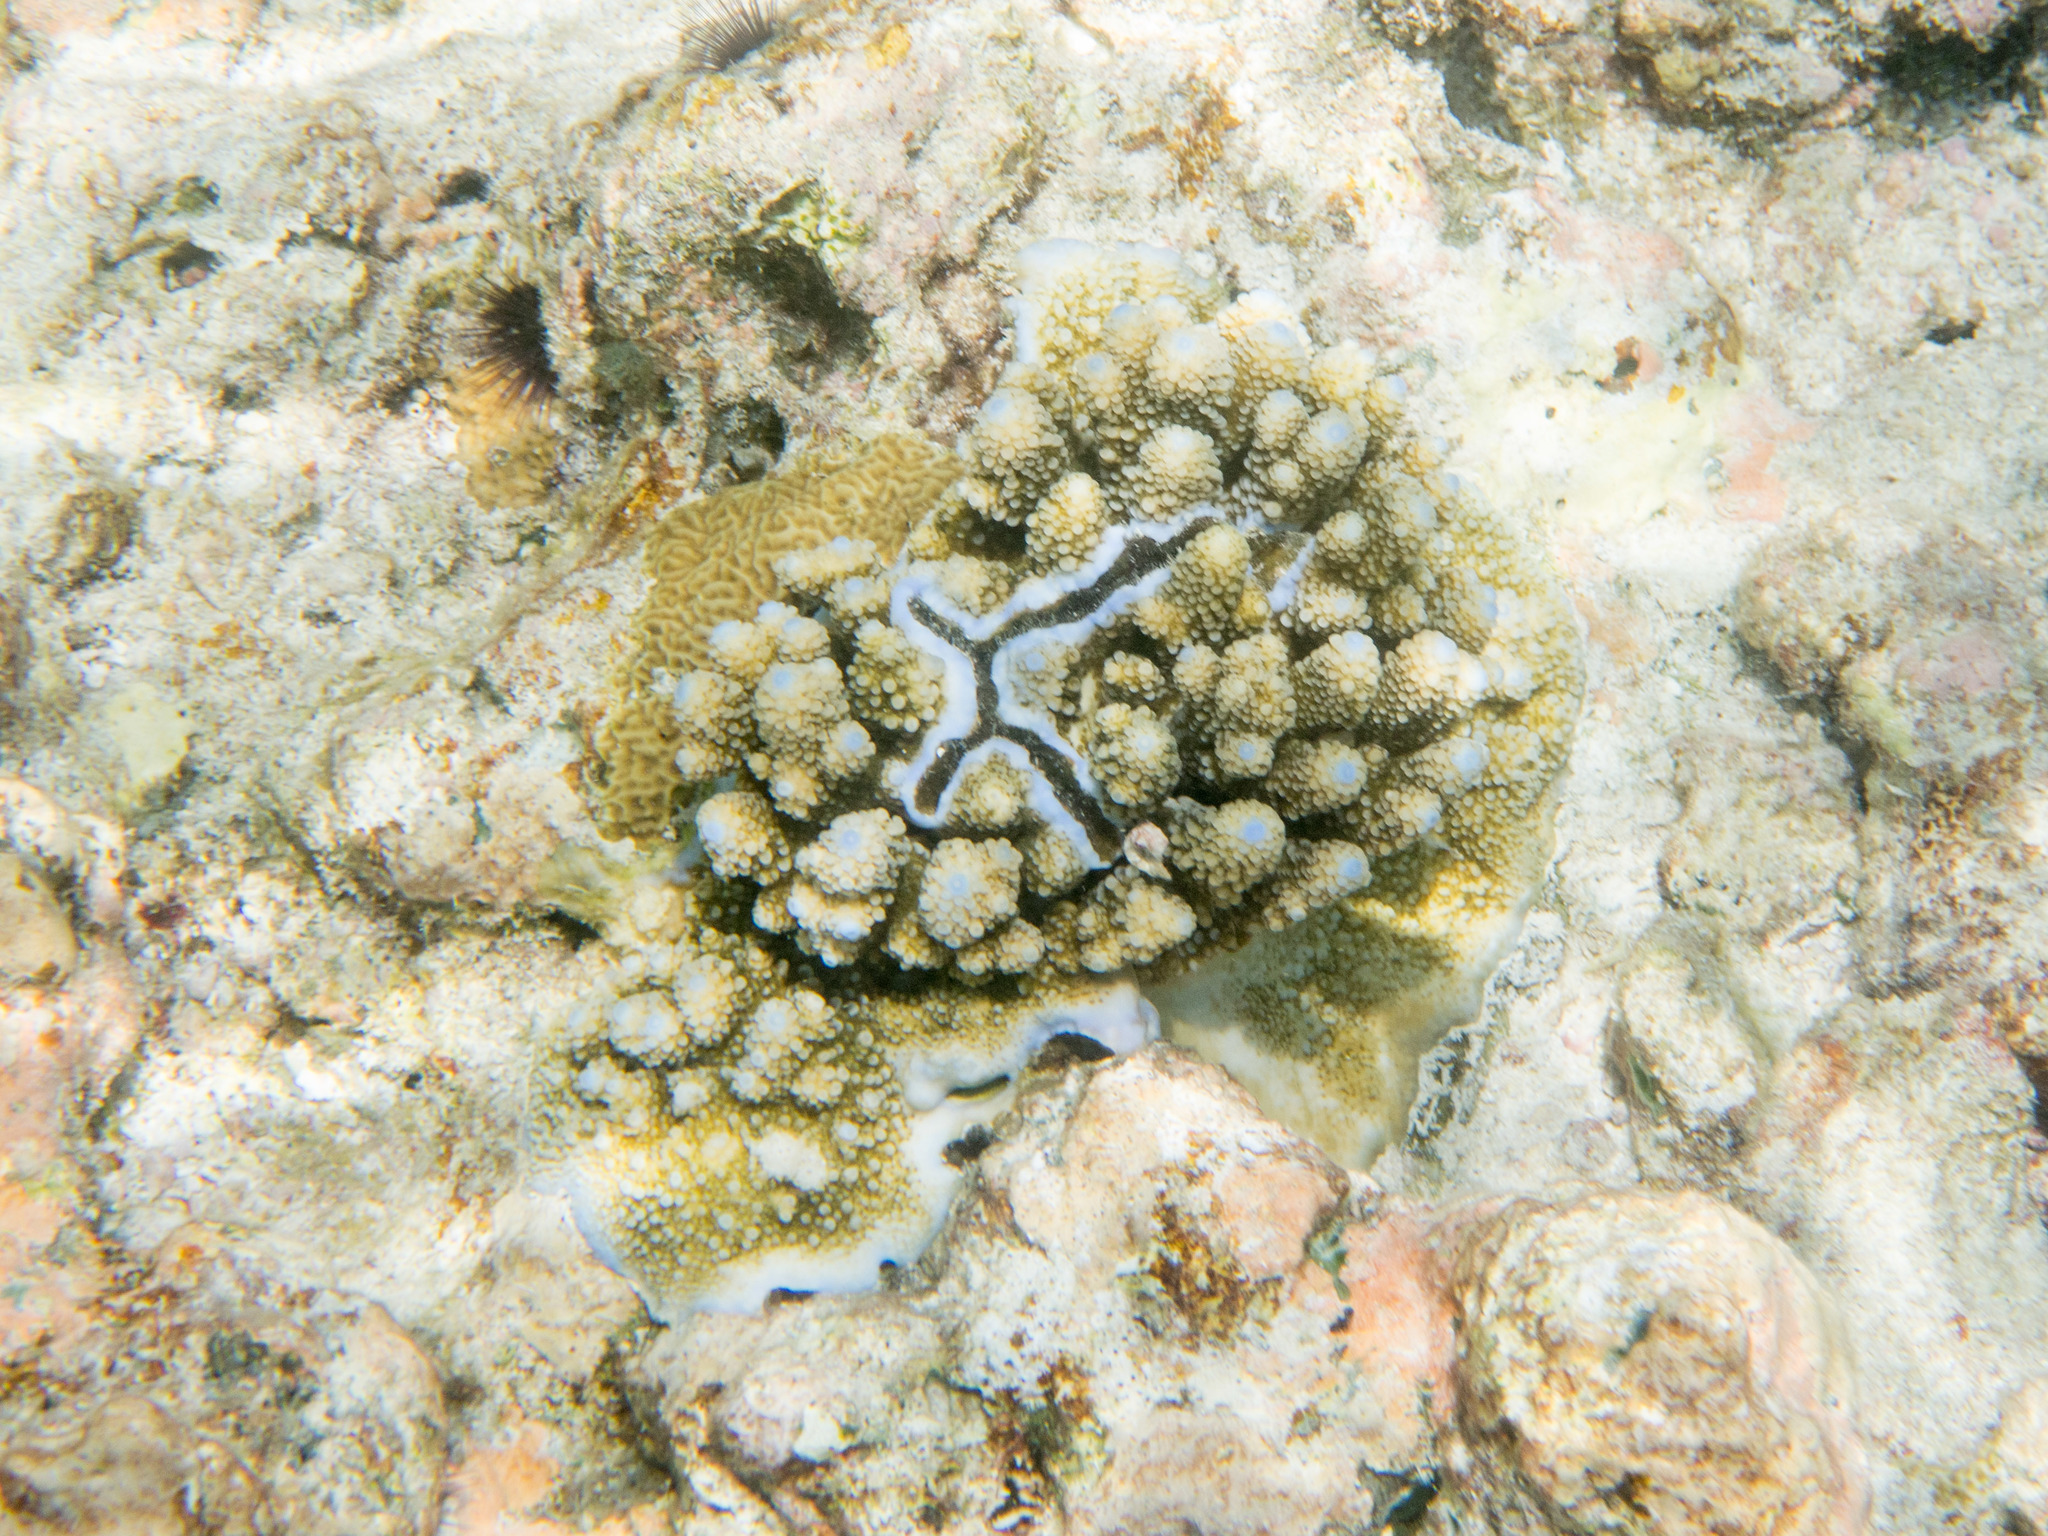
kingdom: Animalia
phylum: Cnidaria
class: Anthozoa
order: Scleractinia
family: Acroporidae
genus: Acropora
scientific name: Acropora gemmifera
